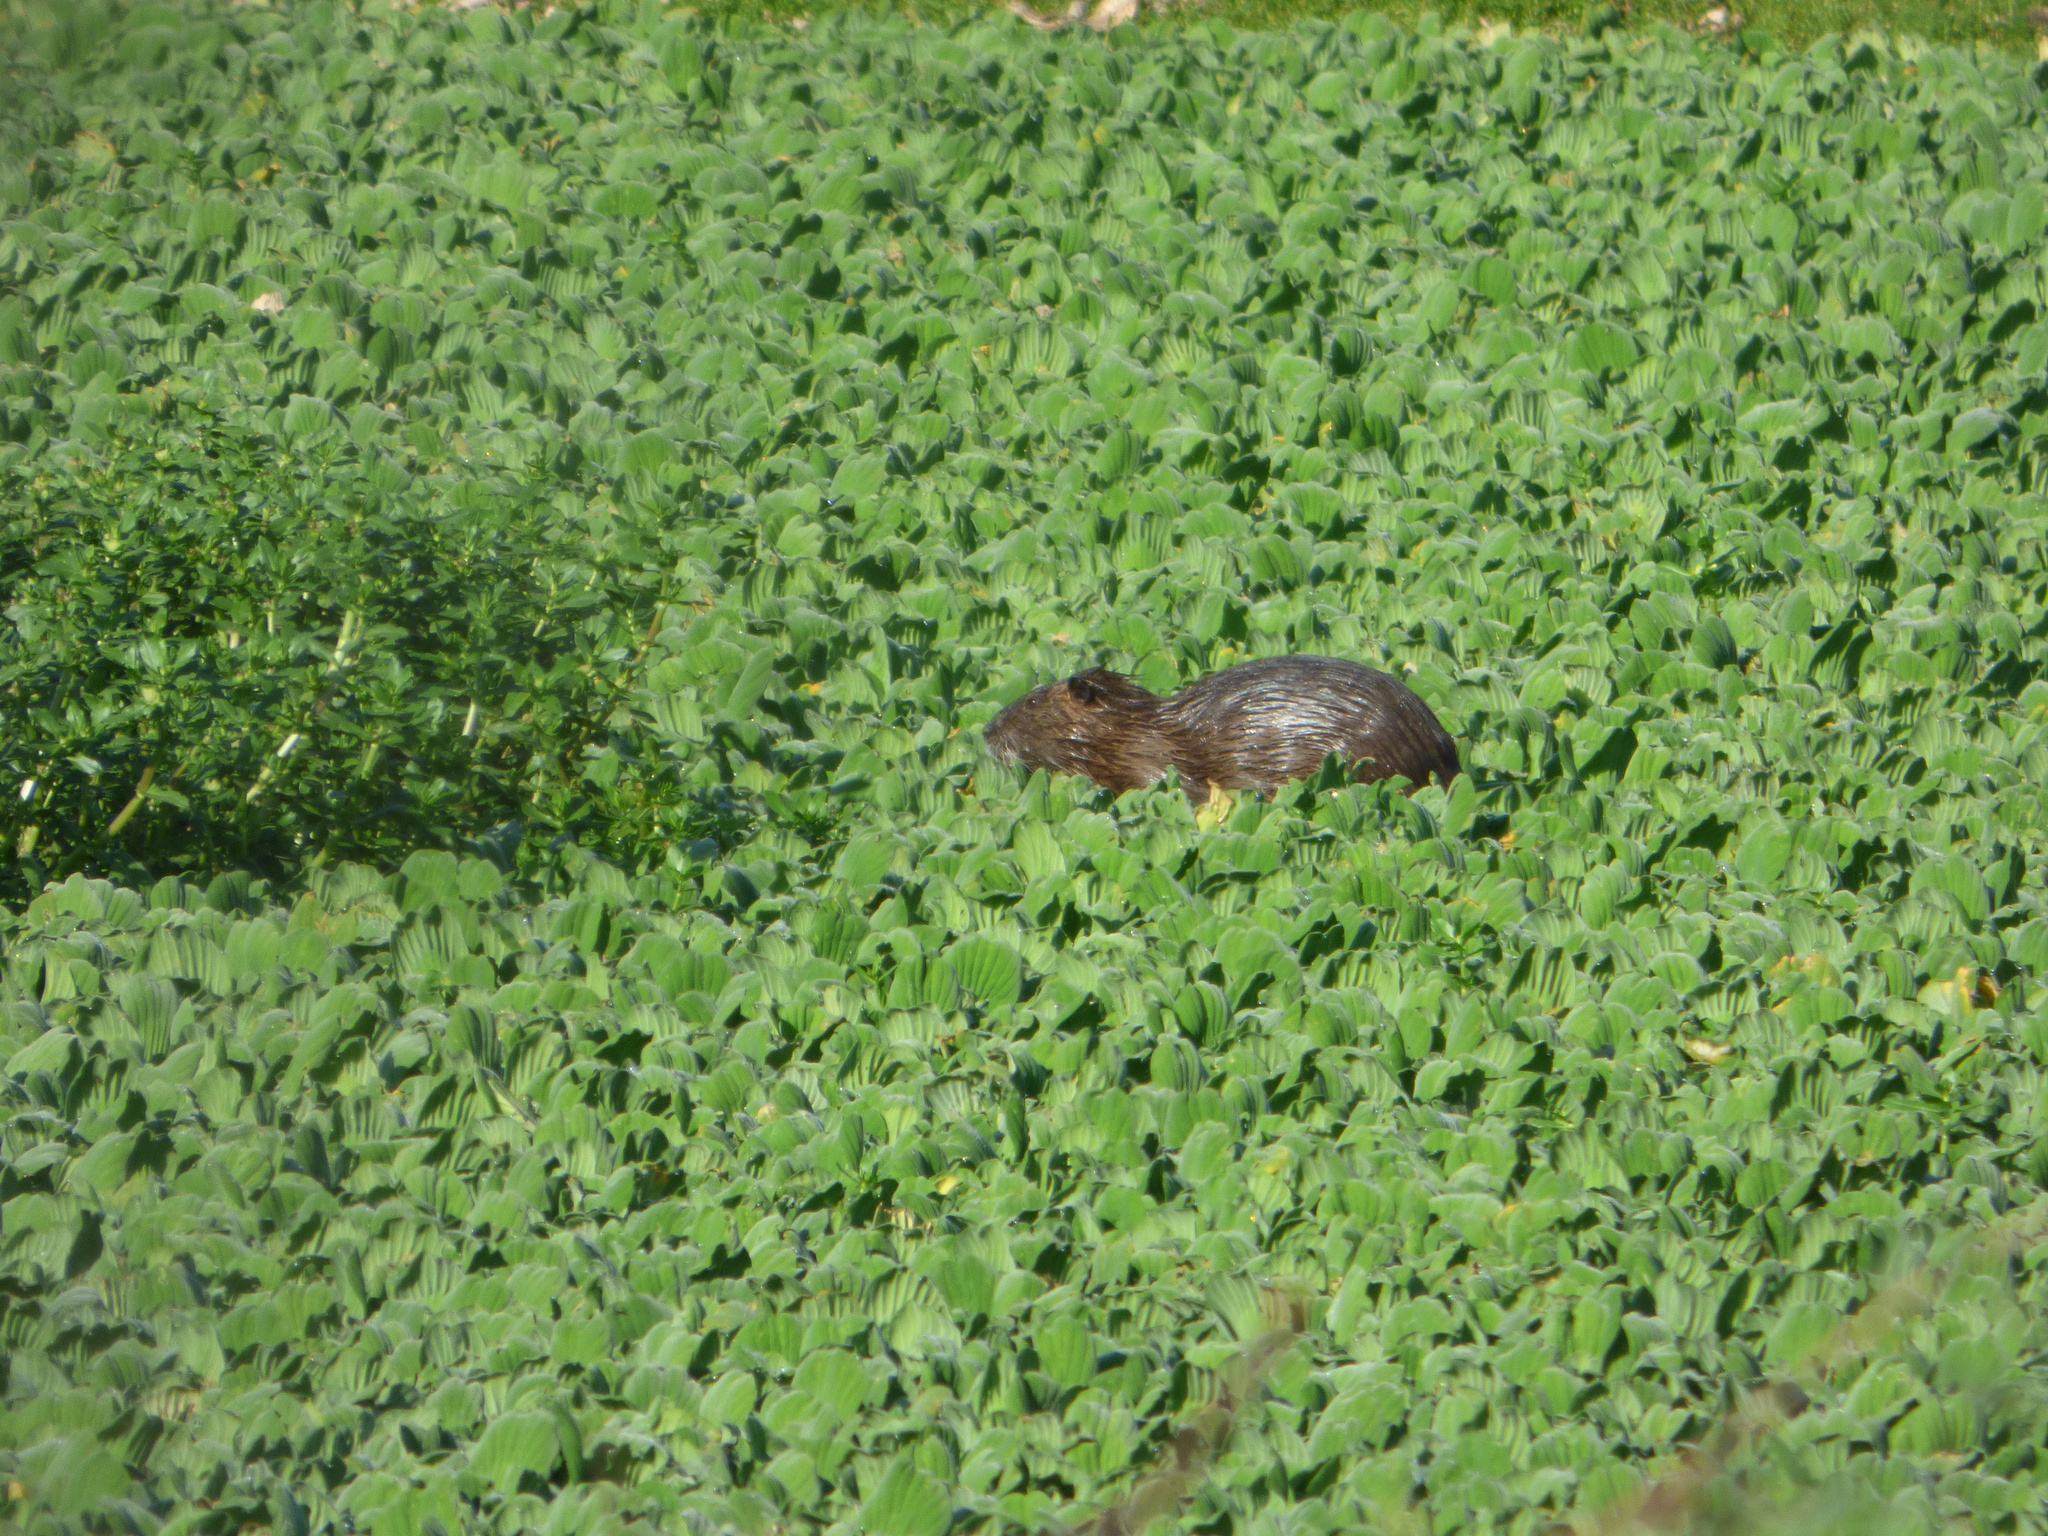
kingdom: Animalia
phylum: Chordata
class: Mammalia
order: Rodentia
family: Myocastoridae
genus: Myocastor
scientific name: Myocastor coypus
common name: Coypu
